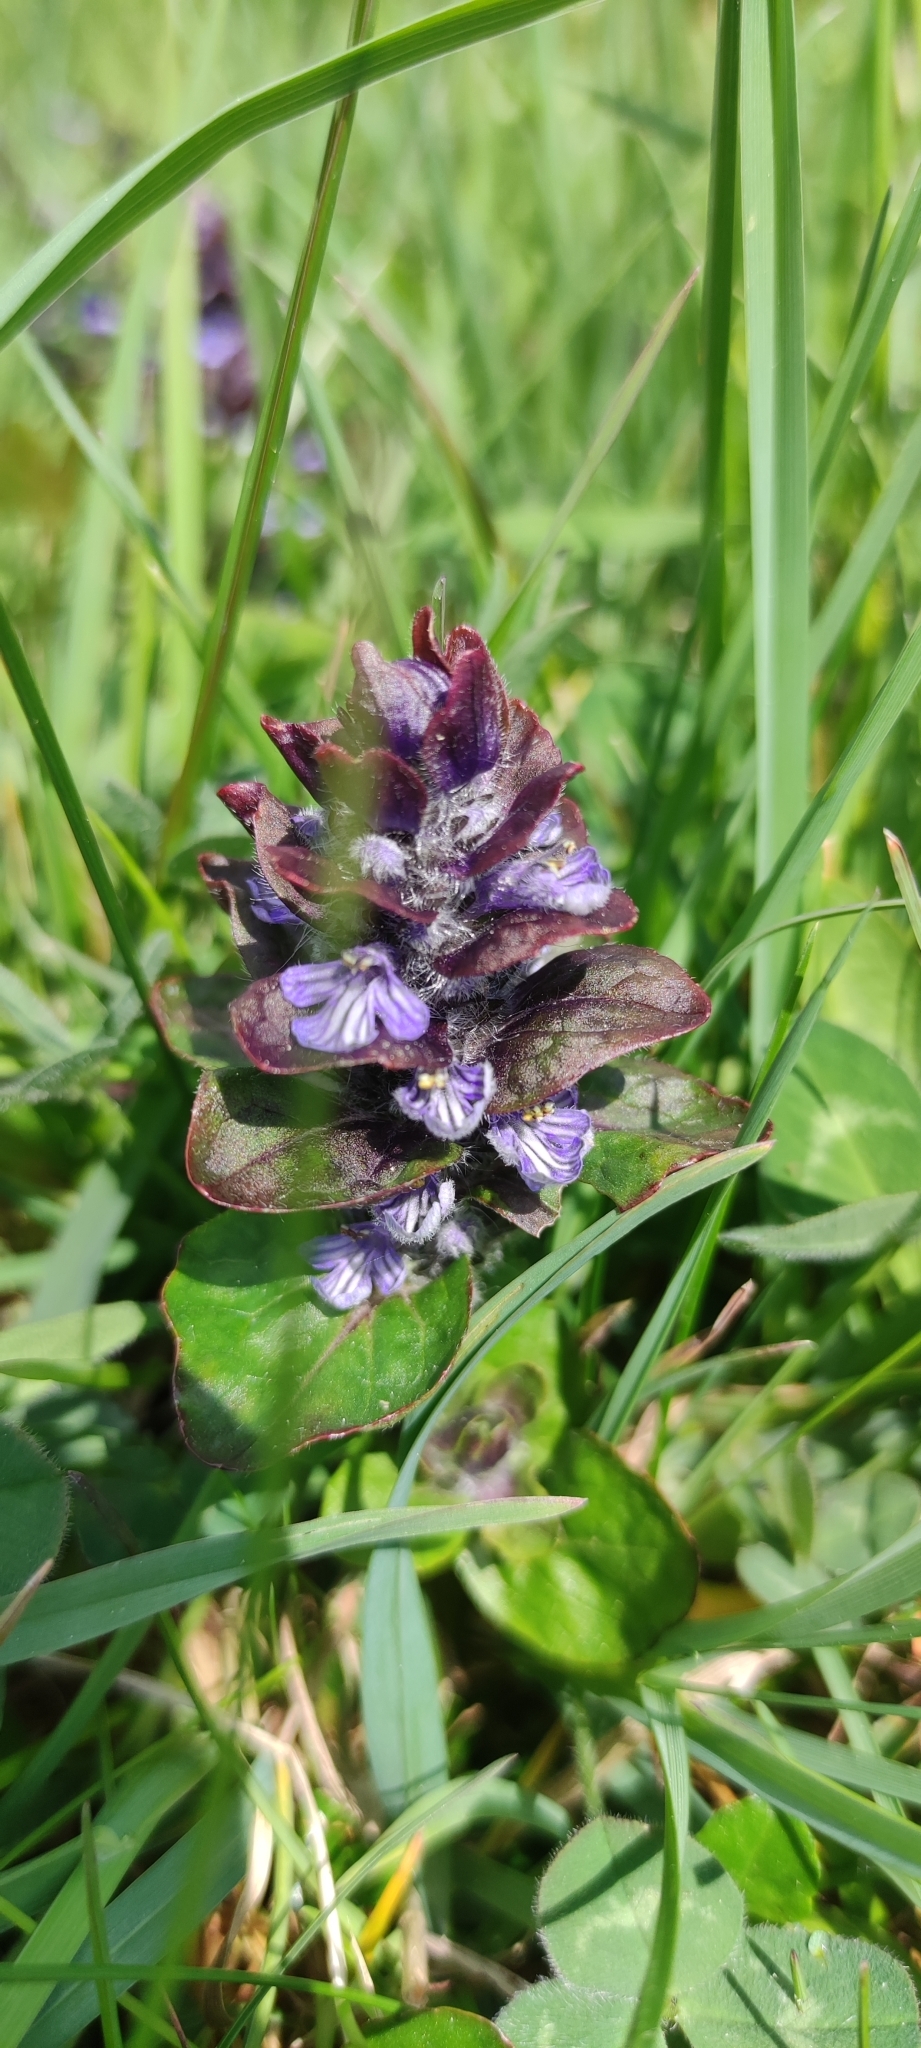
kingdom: Plantae
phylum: Tracheophyta
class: Magnoliopsida
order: Lamiales
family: Lamiaceae
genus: Ajuga
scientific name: Ajuga reptans
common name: Bugle
